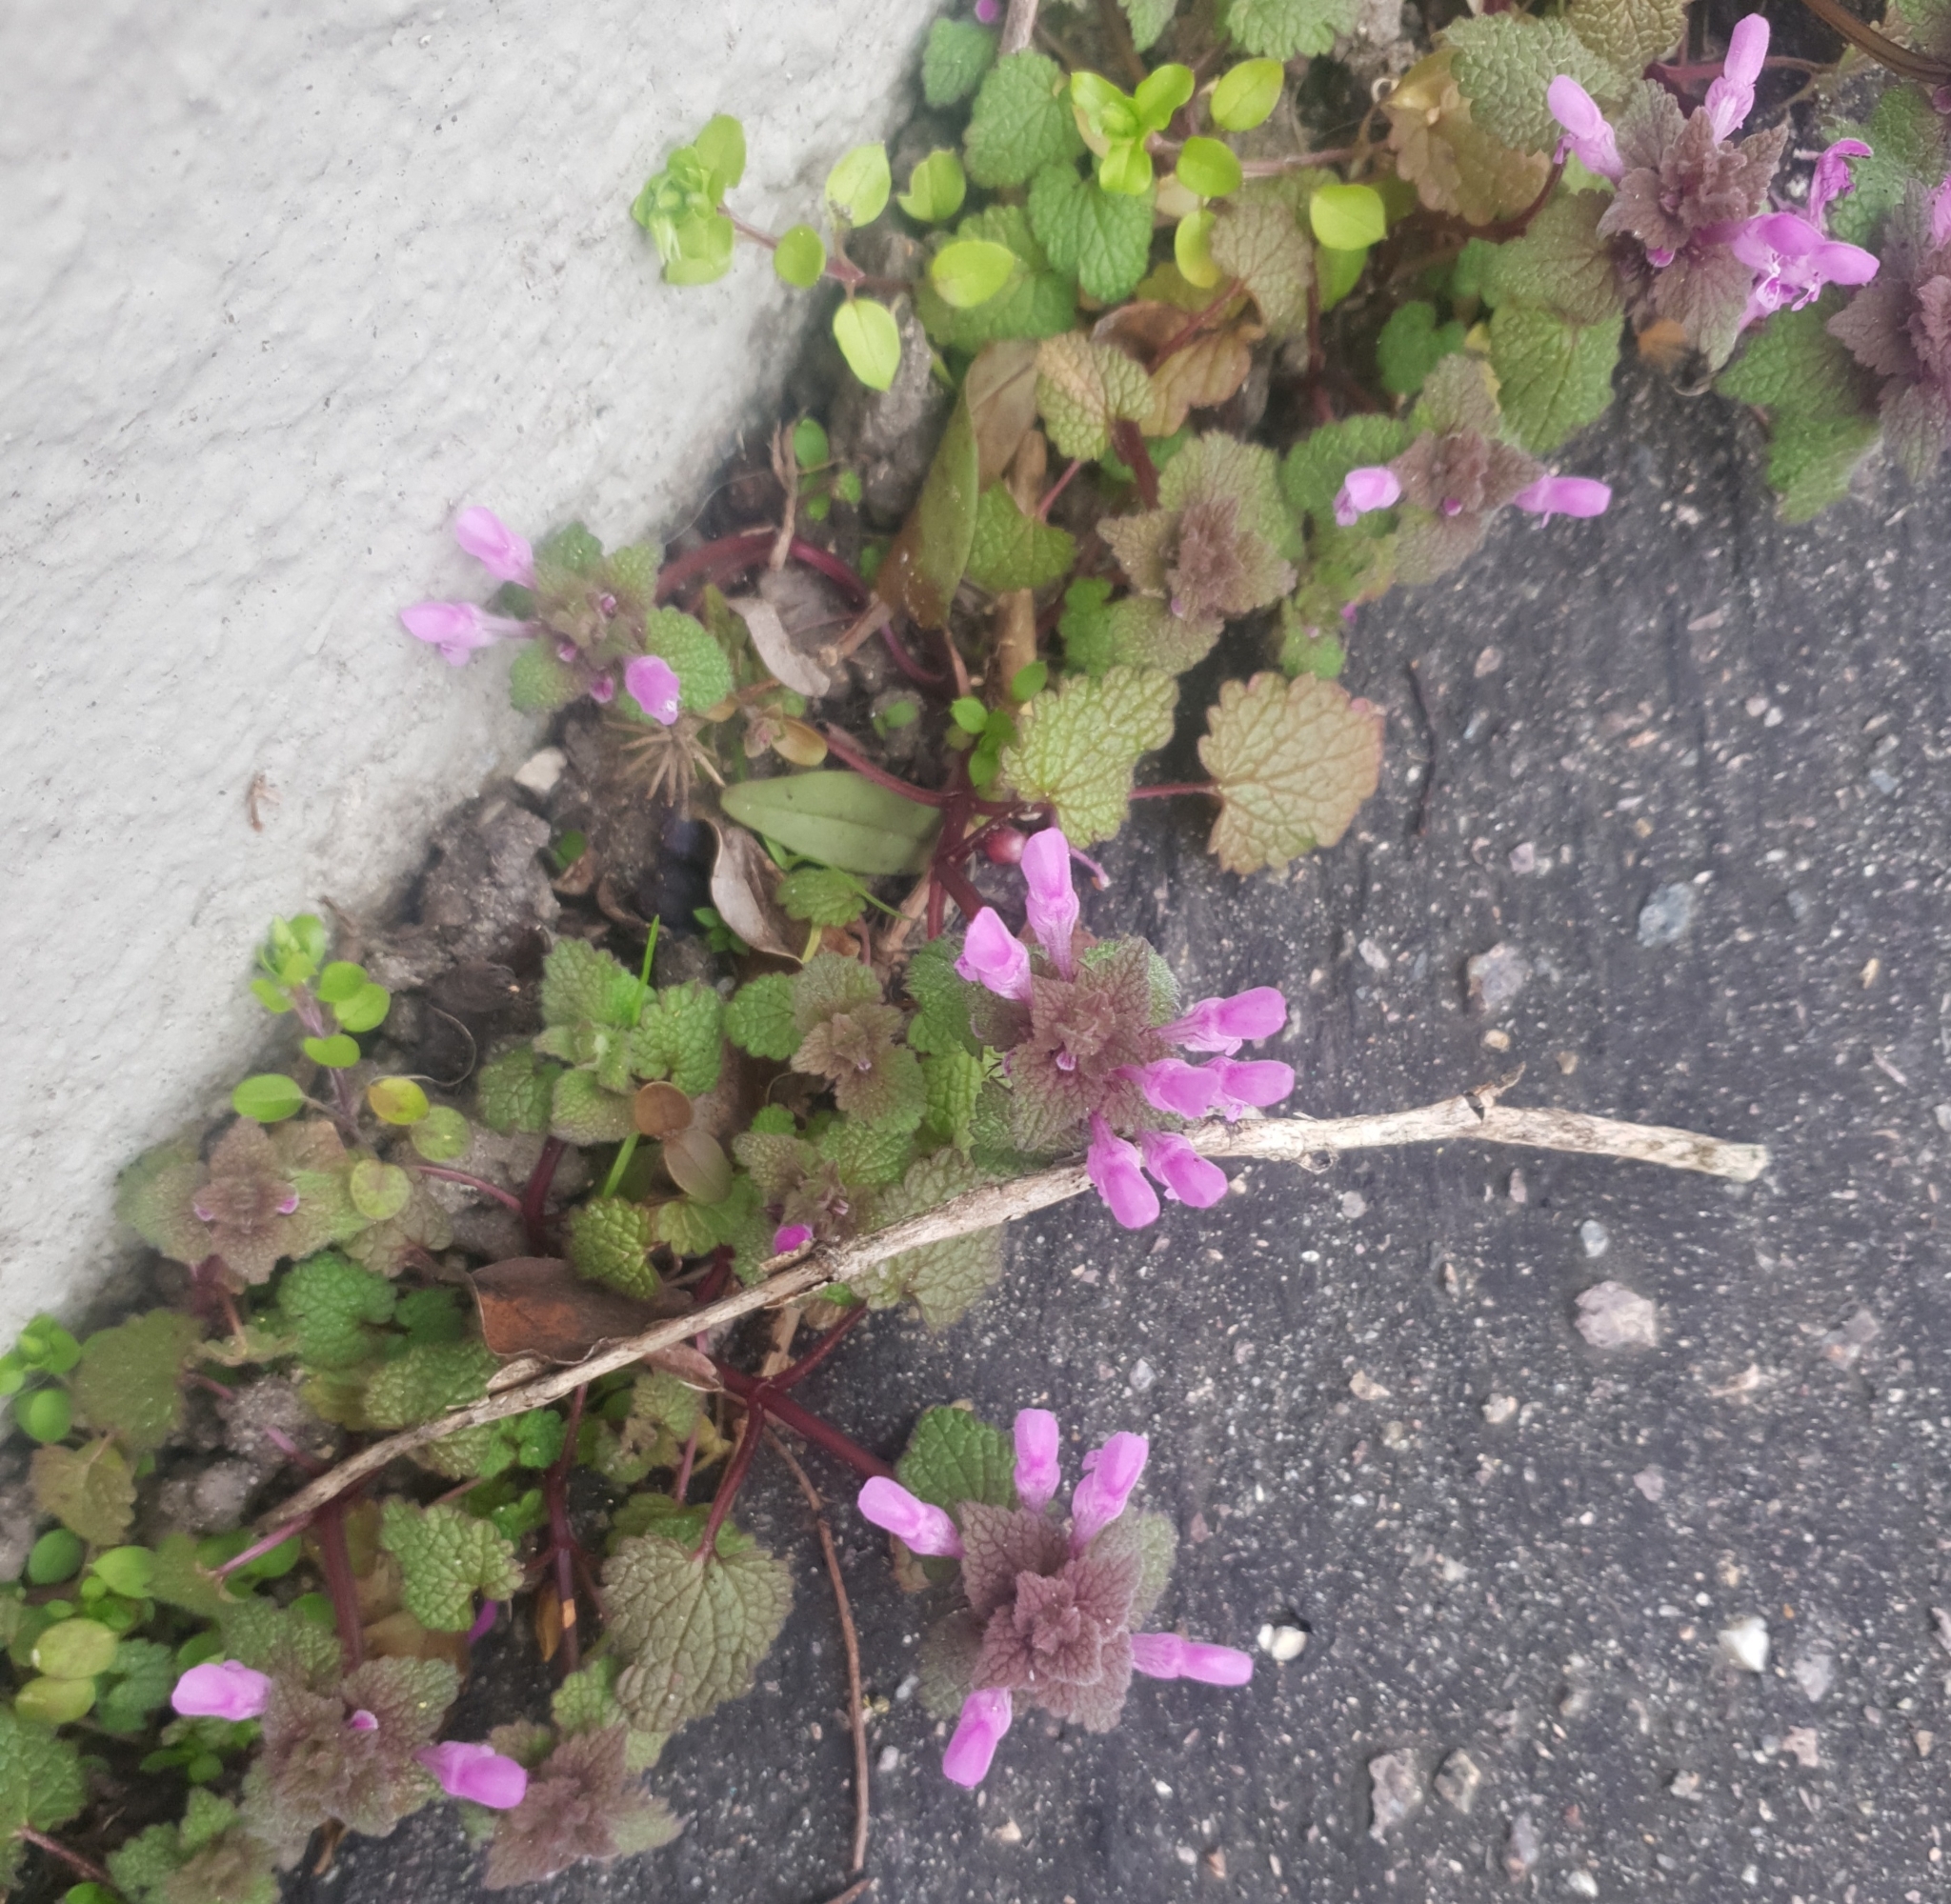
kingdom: Plantae
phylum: Tracheophyta
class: Magnoliopsida
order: Lamiales
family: Lamiaceae
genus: Lamium
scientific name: Lamium purpureum
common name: Red dead-nettle
